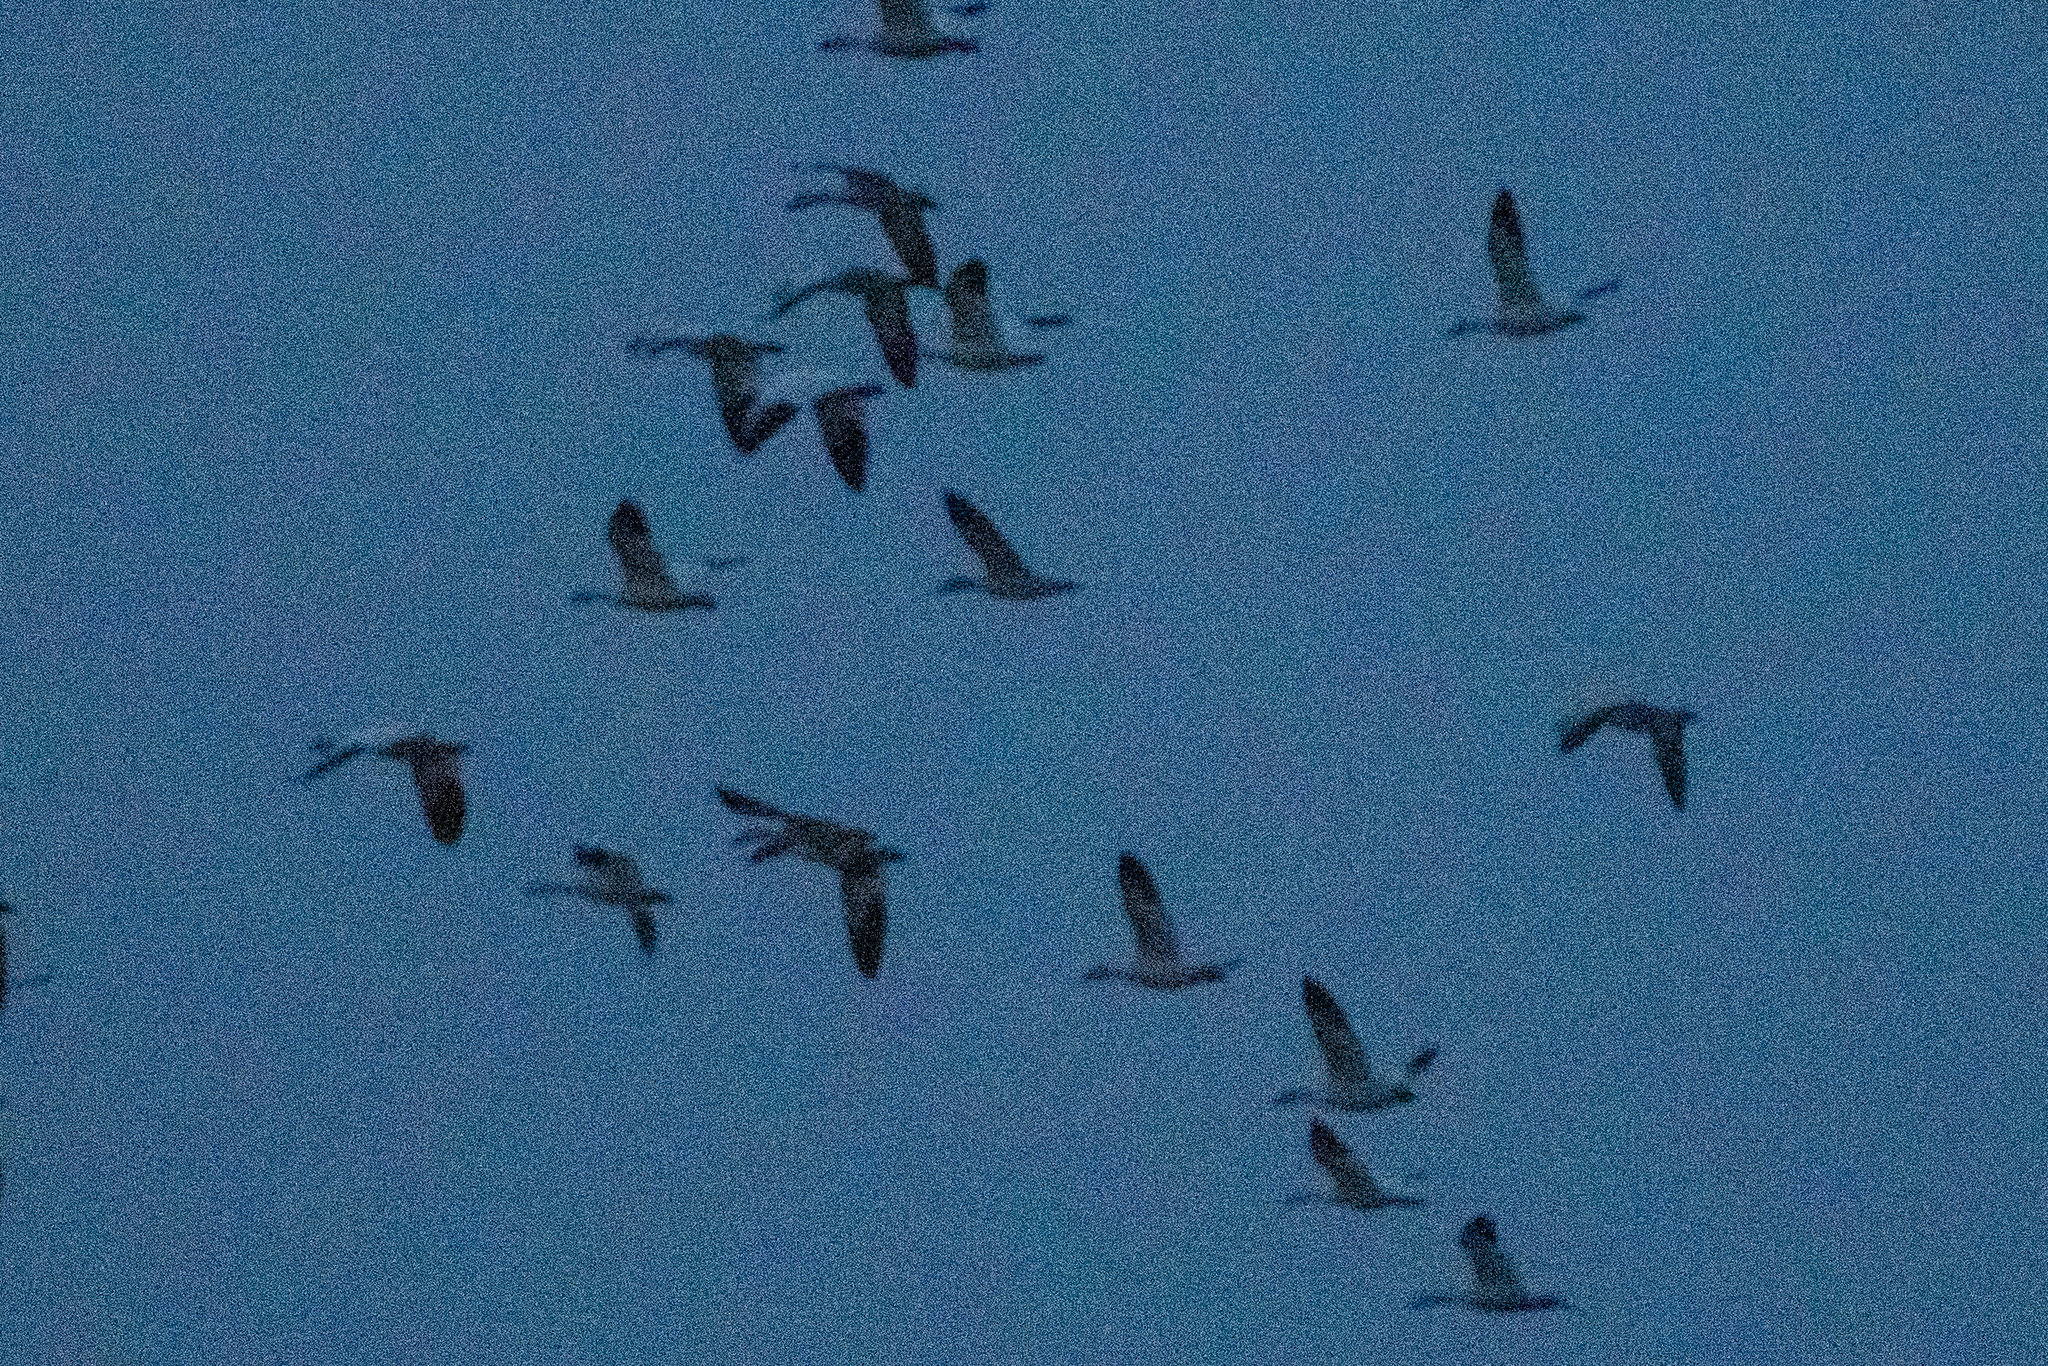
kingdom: Animalia
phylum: Chordata
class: Aves
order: Anseriformes
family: Anatidae
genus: Anser
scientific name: Anser caerulescens
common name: Snow goose
